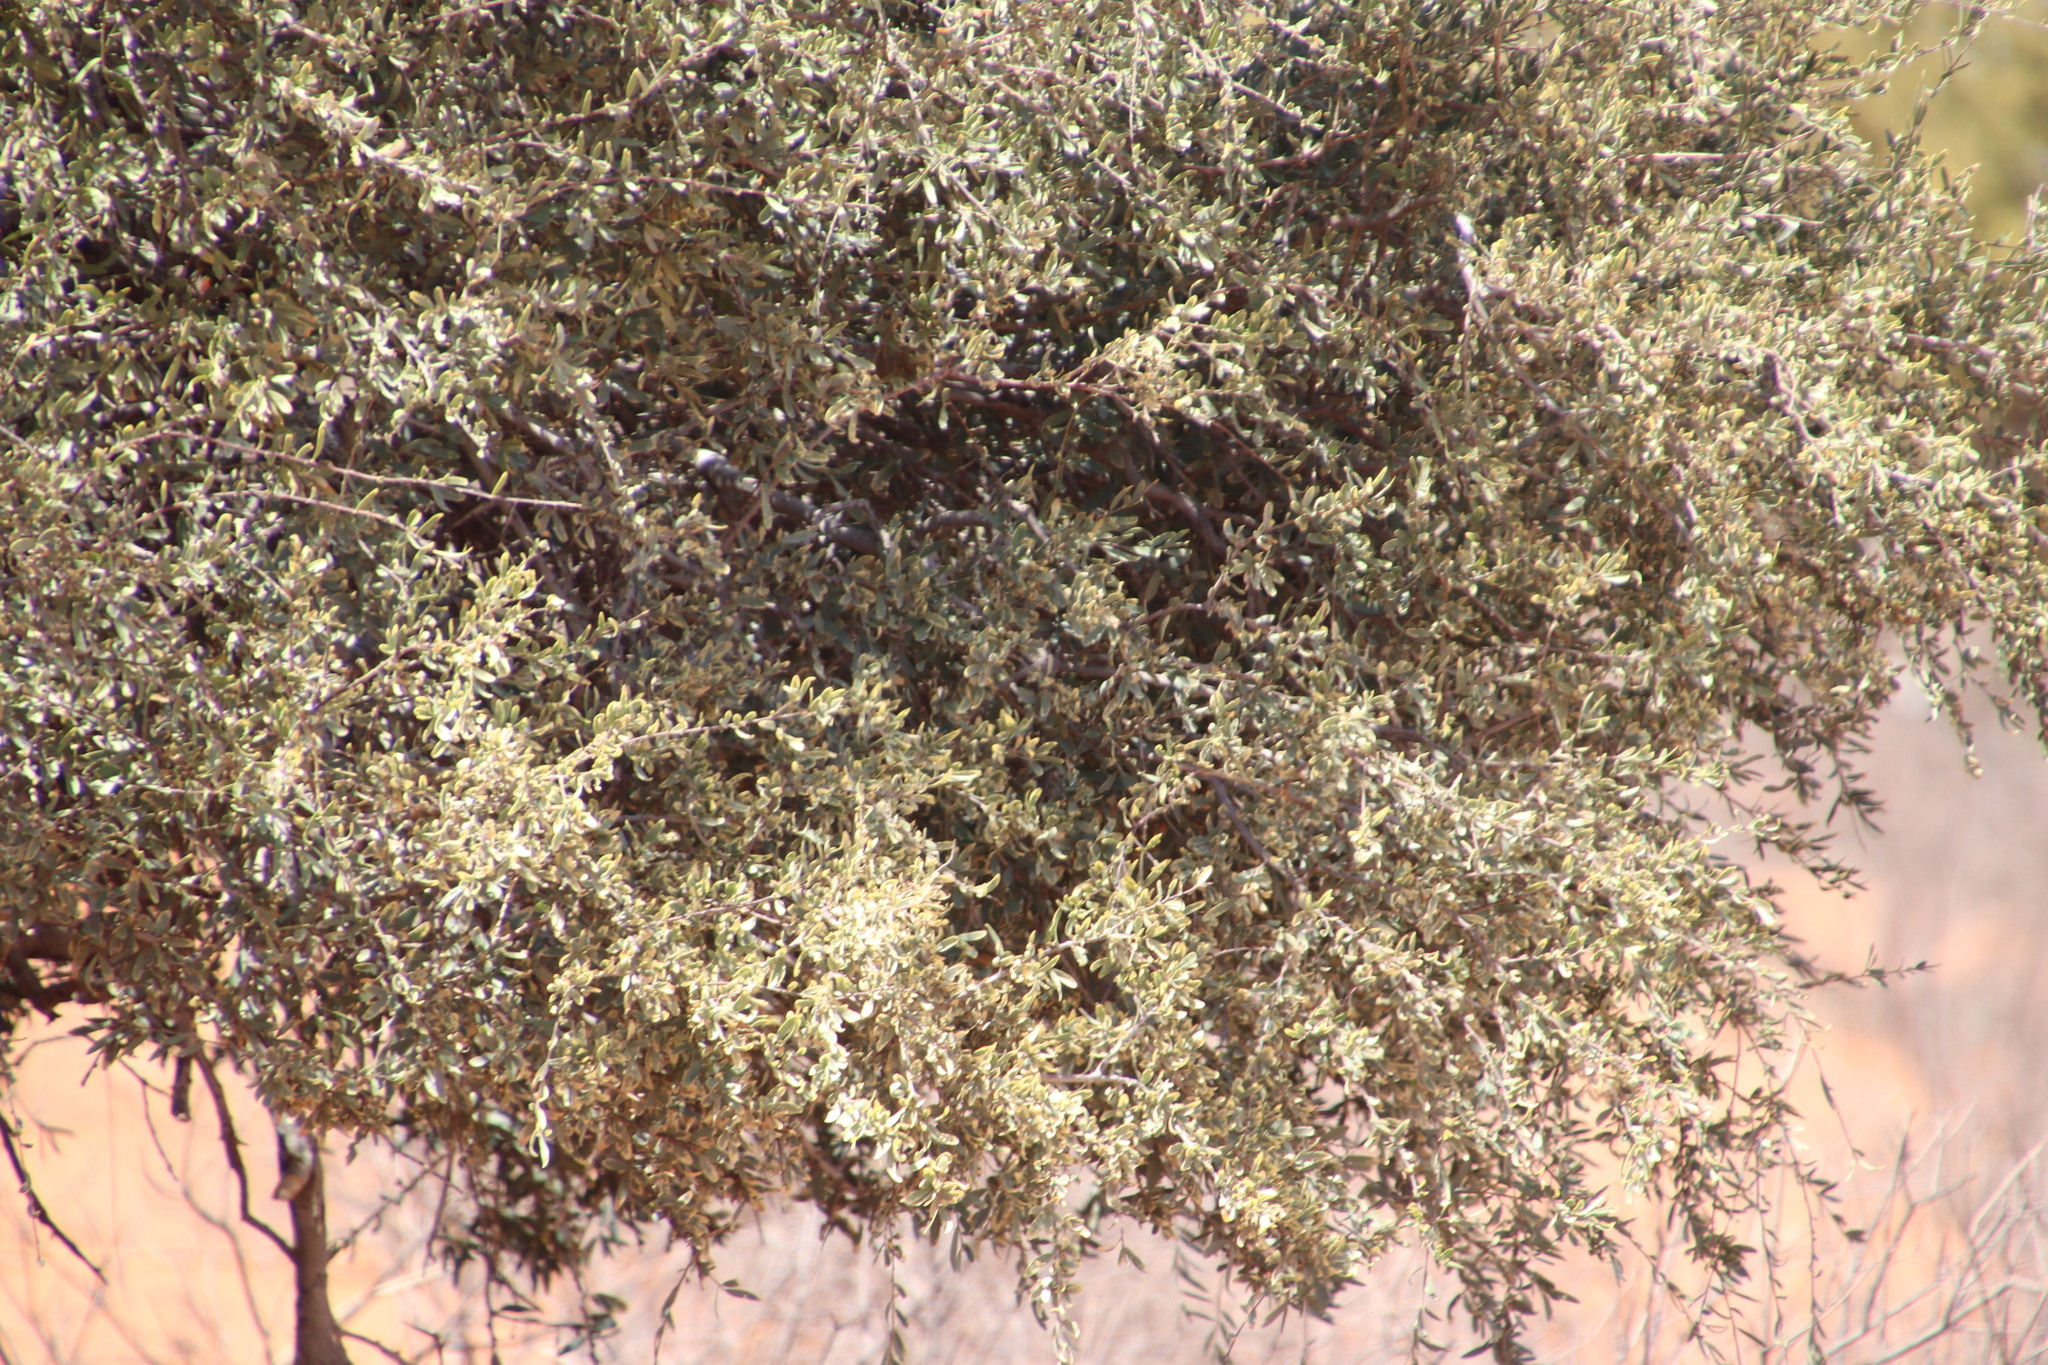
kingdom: Plantae
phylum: Tracheophyta
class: Magnoliopsida
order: Brassicales
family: Capparaceae
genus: Boscia
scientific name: Boscia albitrunca
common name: Caper bush
